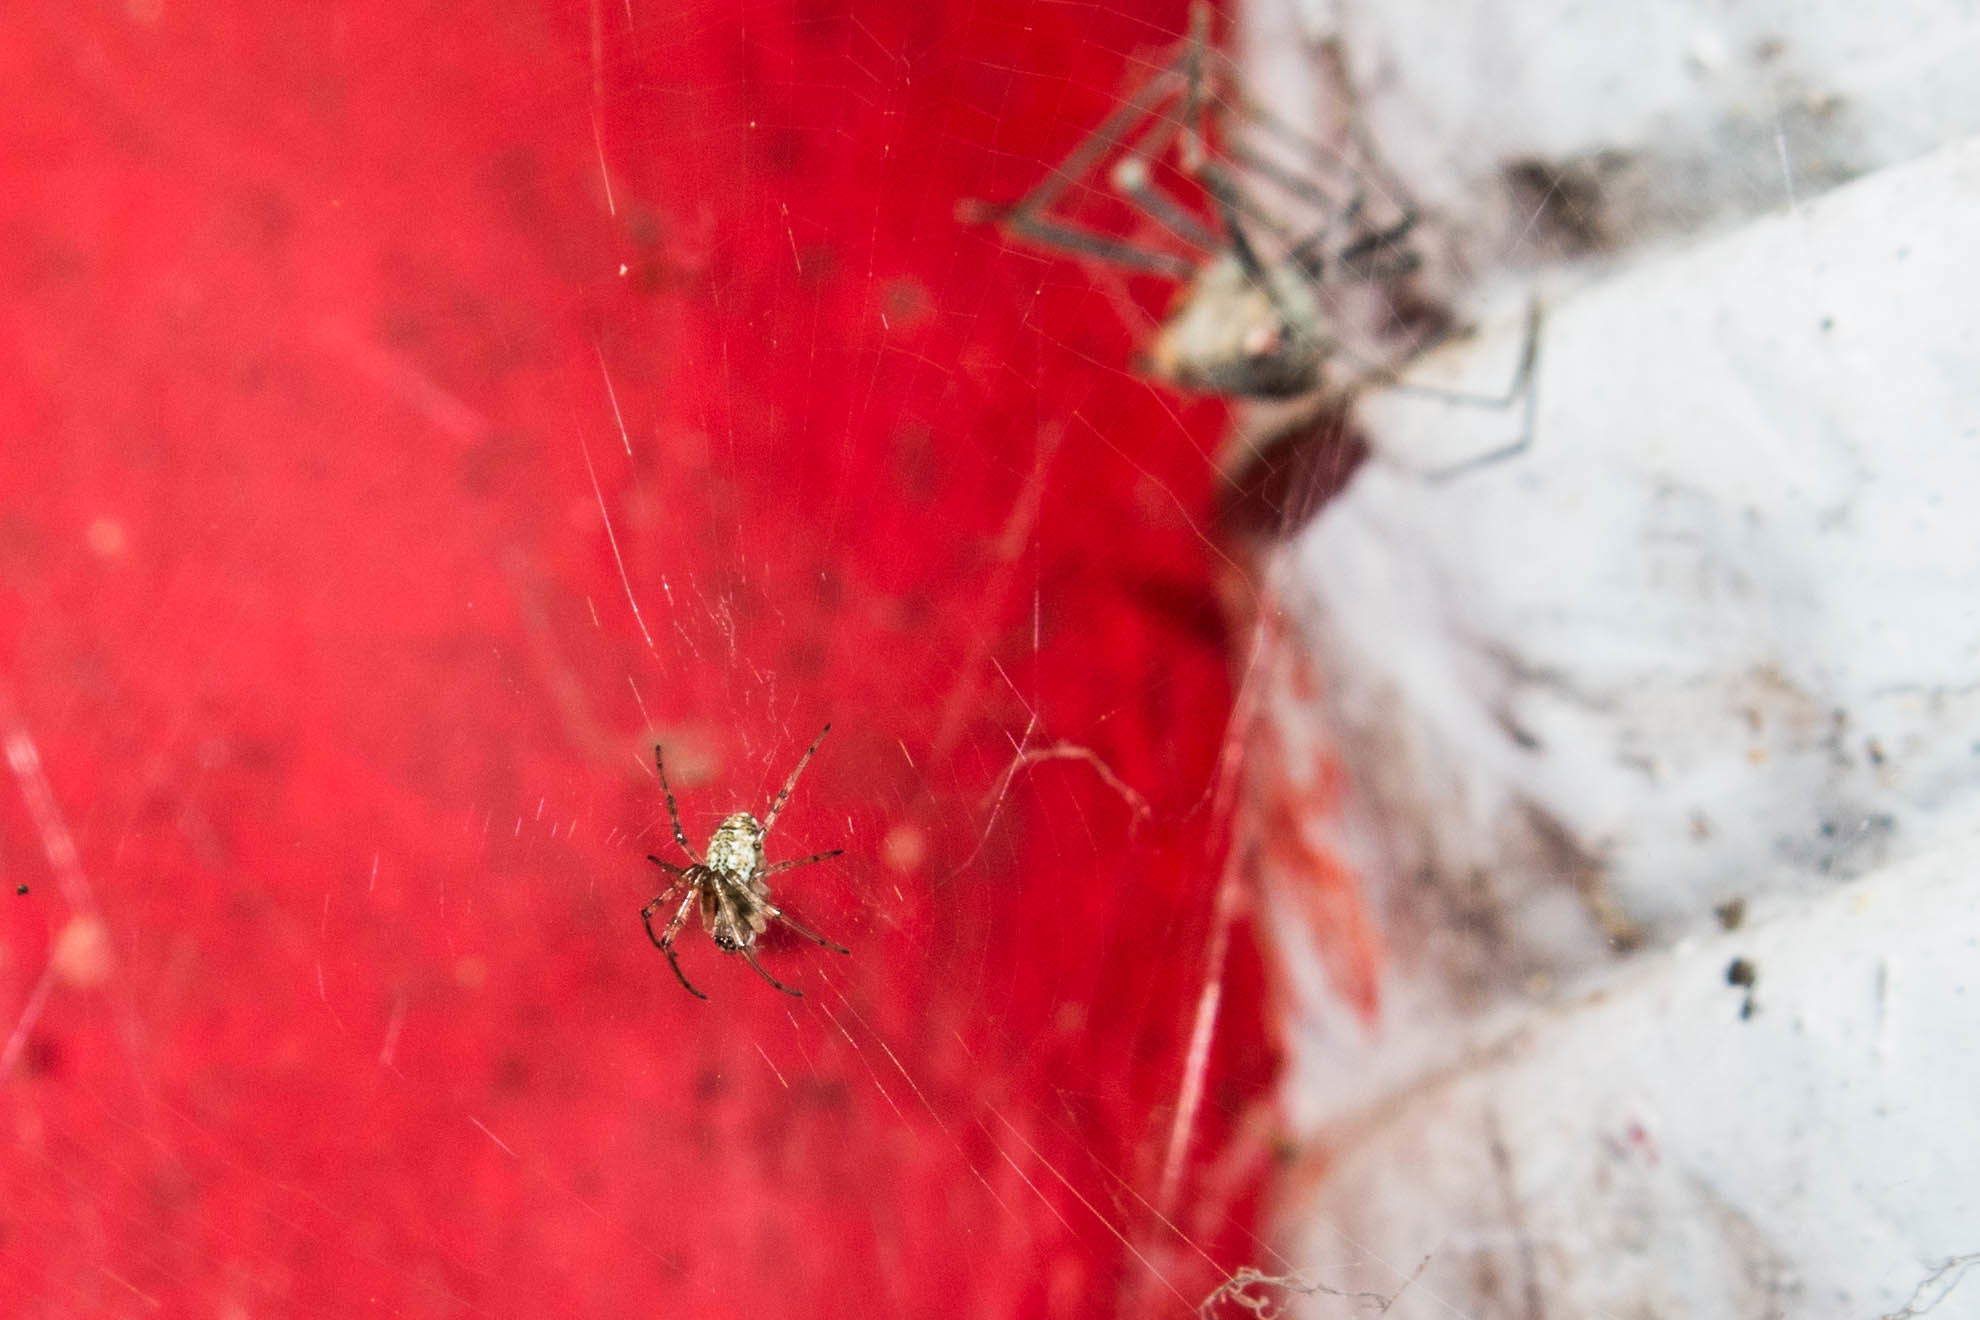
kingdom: Animalia
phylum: Arthropoda
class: Arachnida
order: Araneae
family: Araneidae
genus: Nephilingis
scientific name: Nephilingis cruentata
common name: African hermit spider
